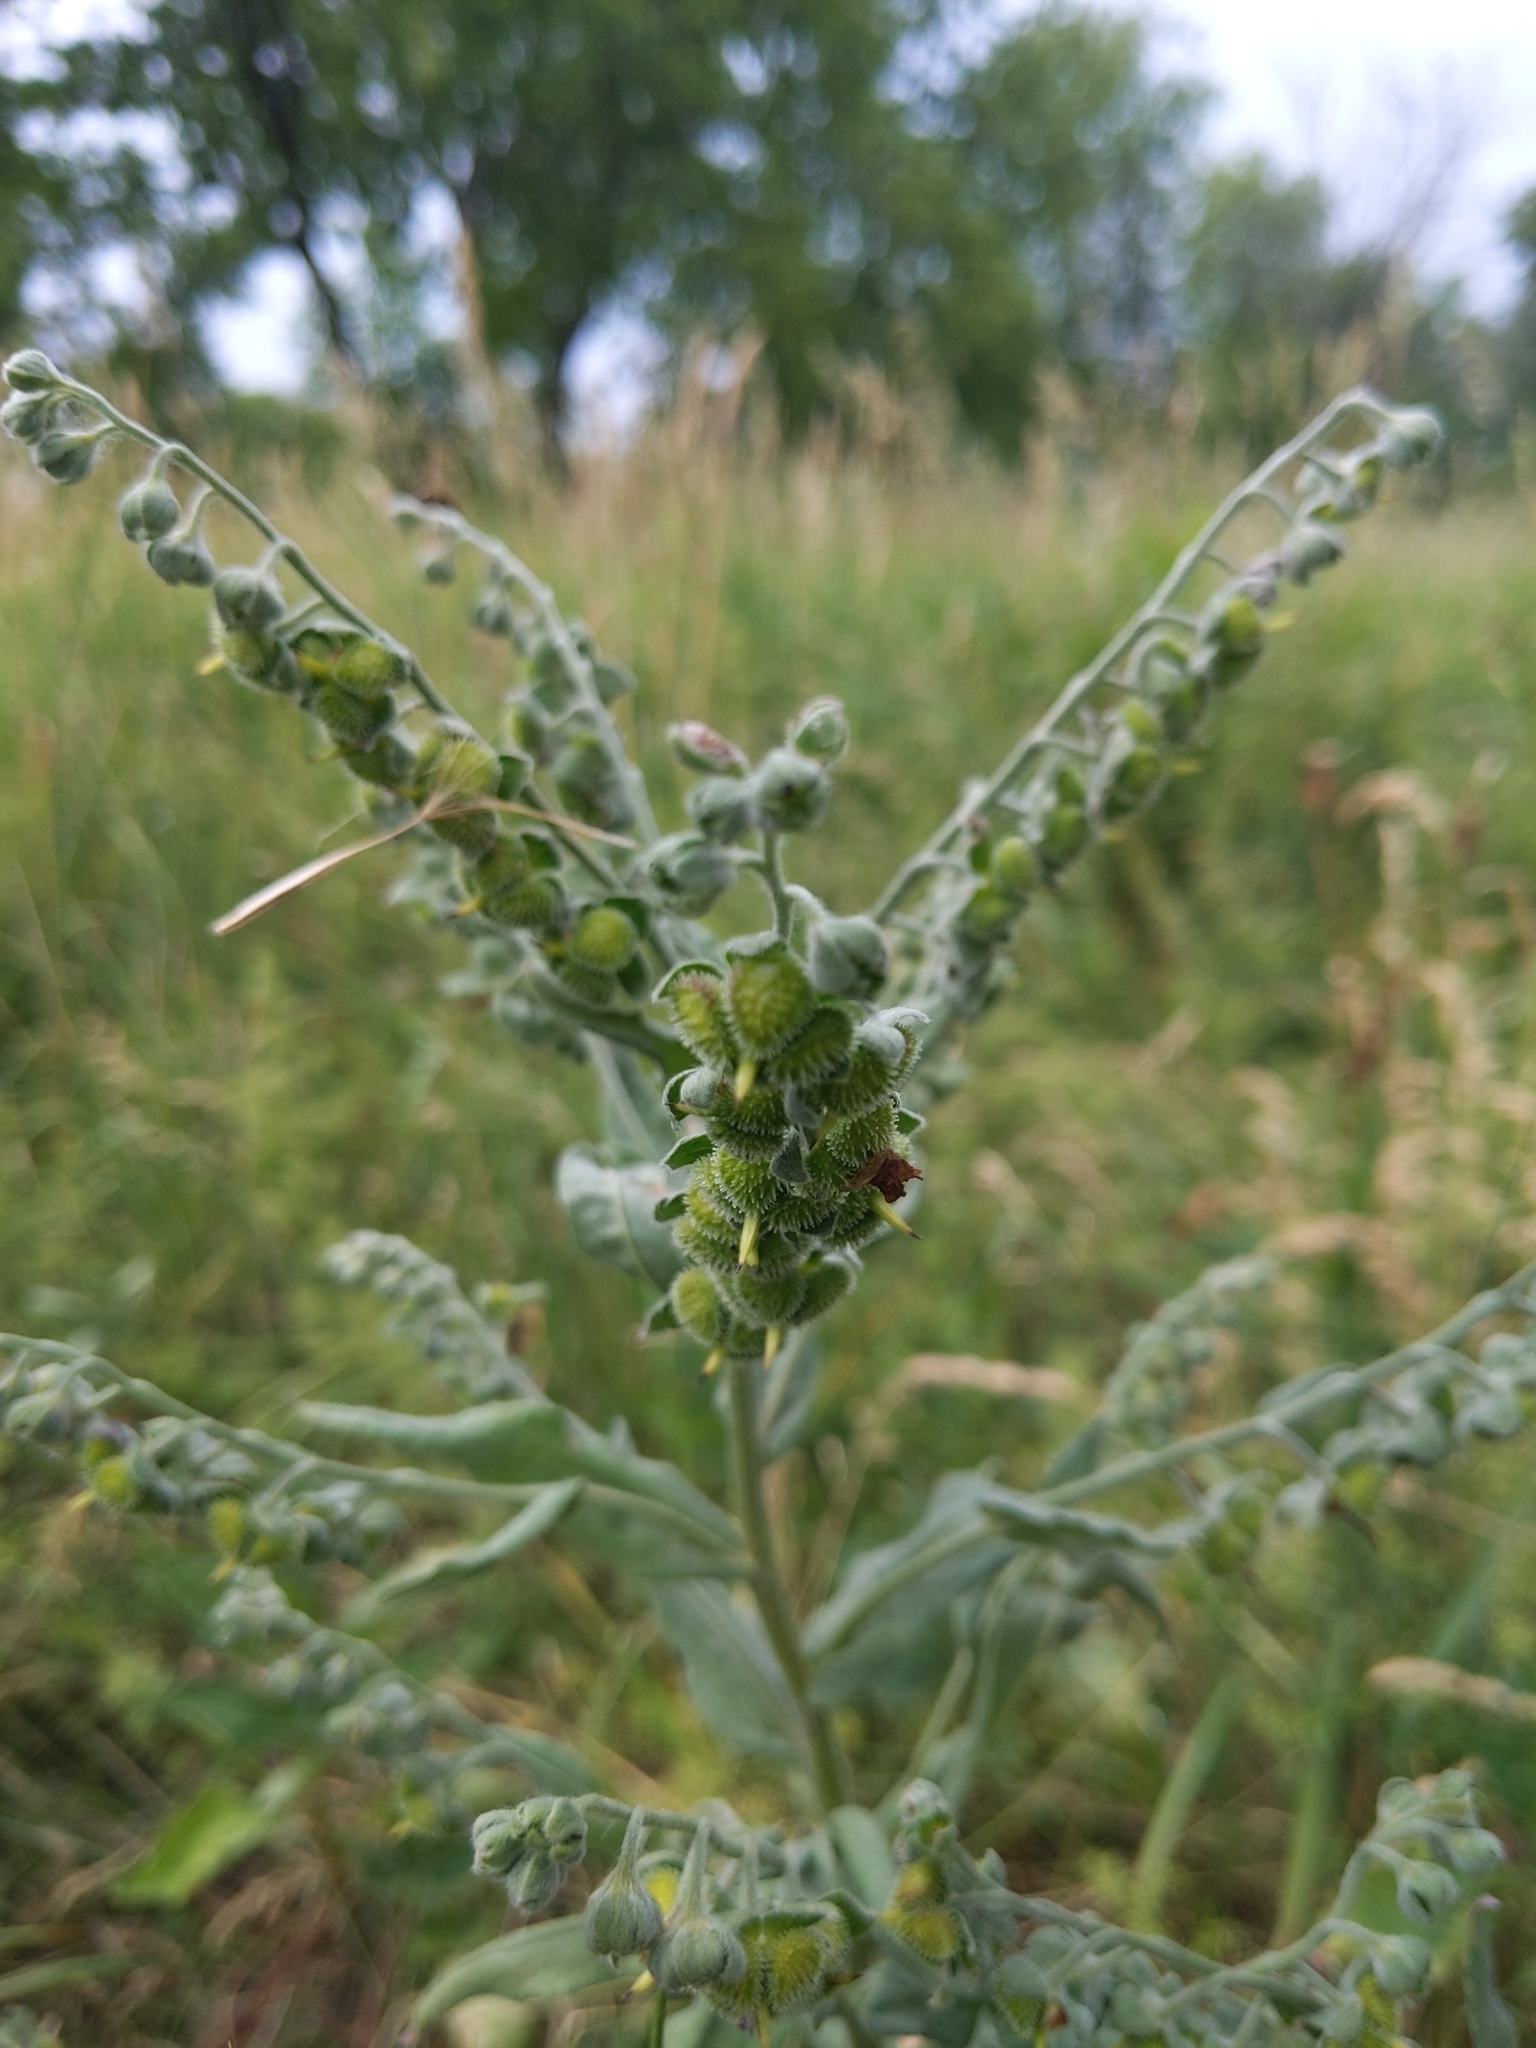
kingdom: Plantae
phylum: Tracheophyta
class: Magnoliopsida
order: Boraginales
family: Boraginaceae
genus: Cynoglossum
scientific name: Cynoglossum officinale
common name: Hound's-tongue
